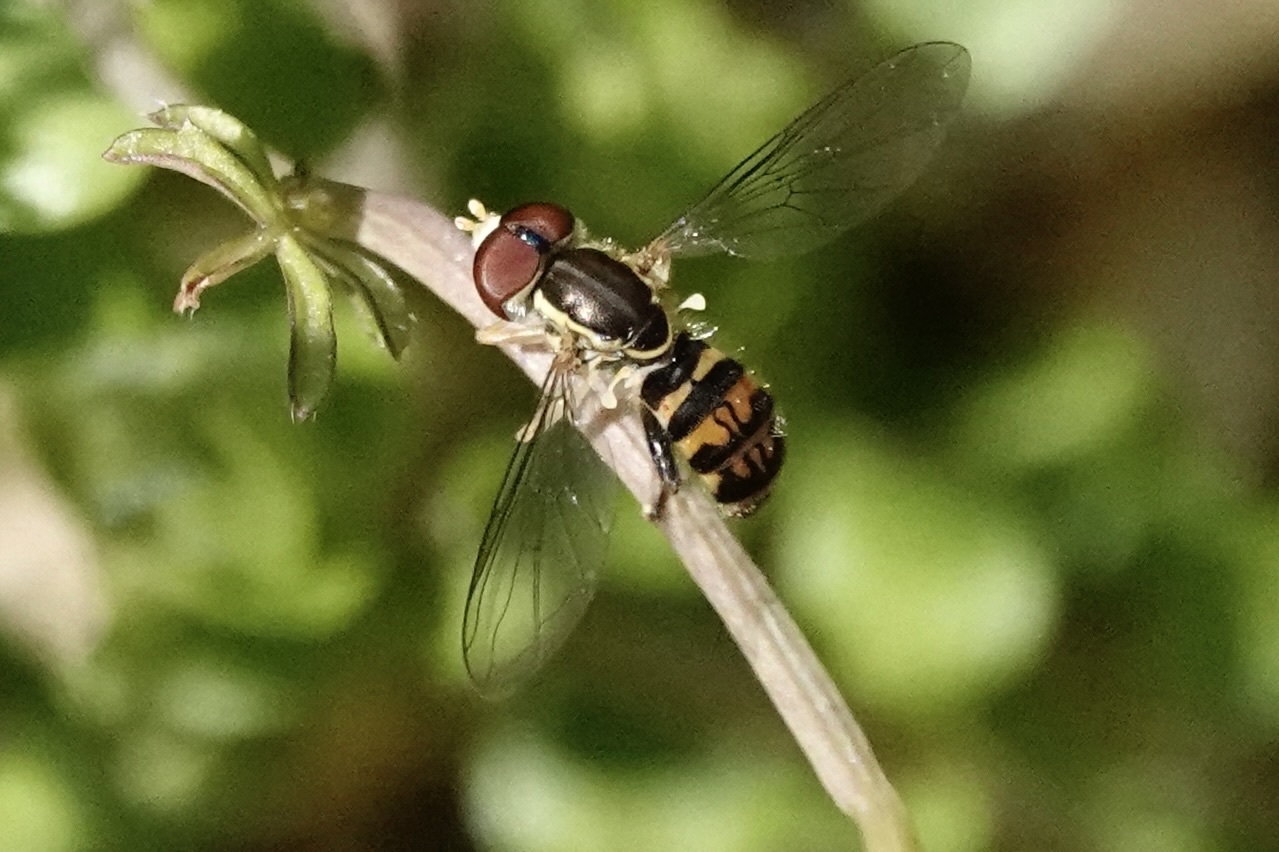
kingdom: Animalia
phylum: Arthropoda
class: Insecta
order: Diptera
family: Syrphidae
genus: Toxomerus
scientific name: Toxomerus geminatus
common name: Eastern calligrapher
